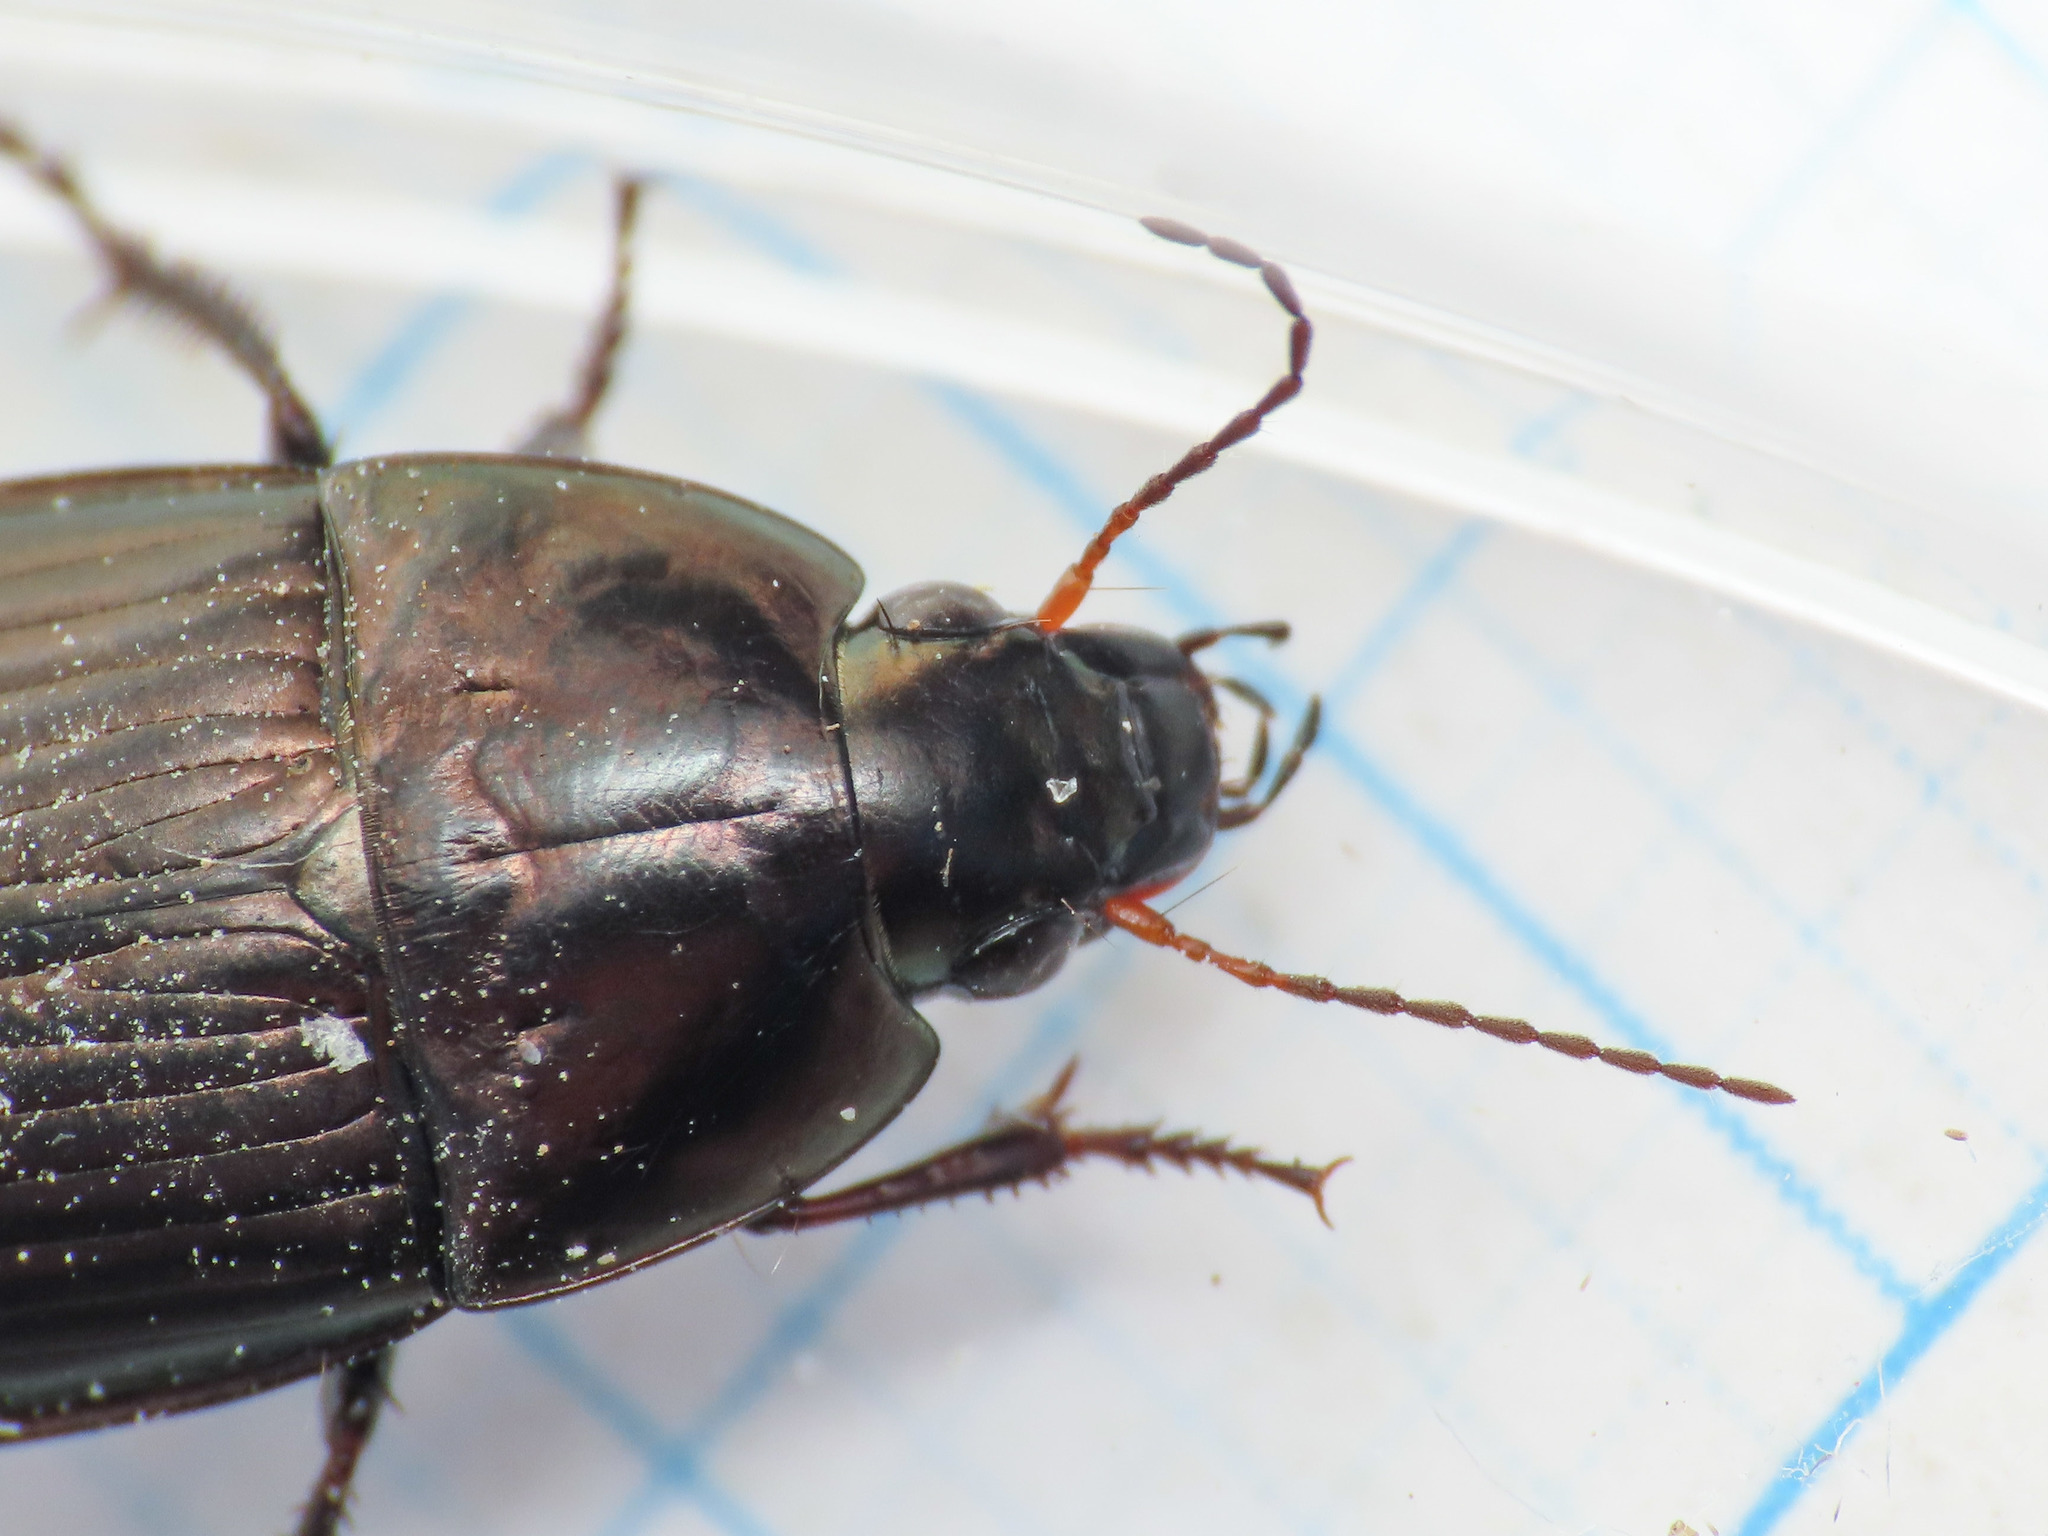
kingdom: Animalia
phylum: Arthropoda
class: Insecta
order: Coleoptera
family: Carabidae
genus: Amara
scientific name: Amara eurynota
